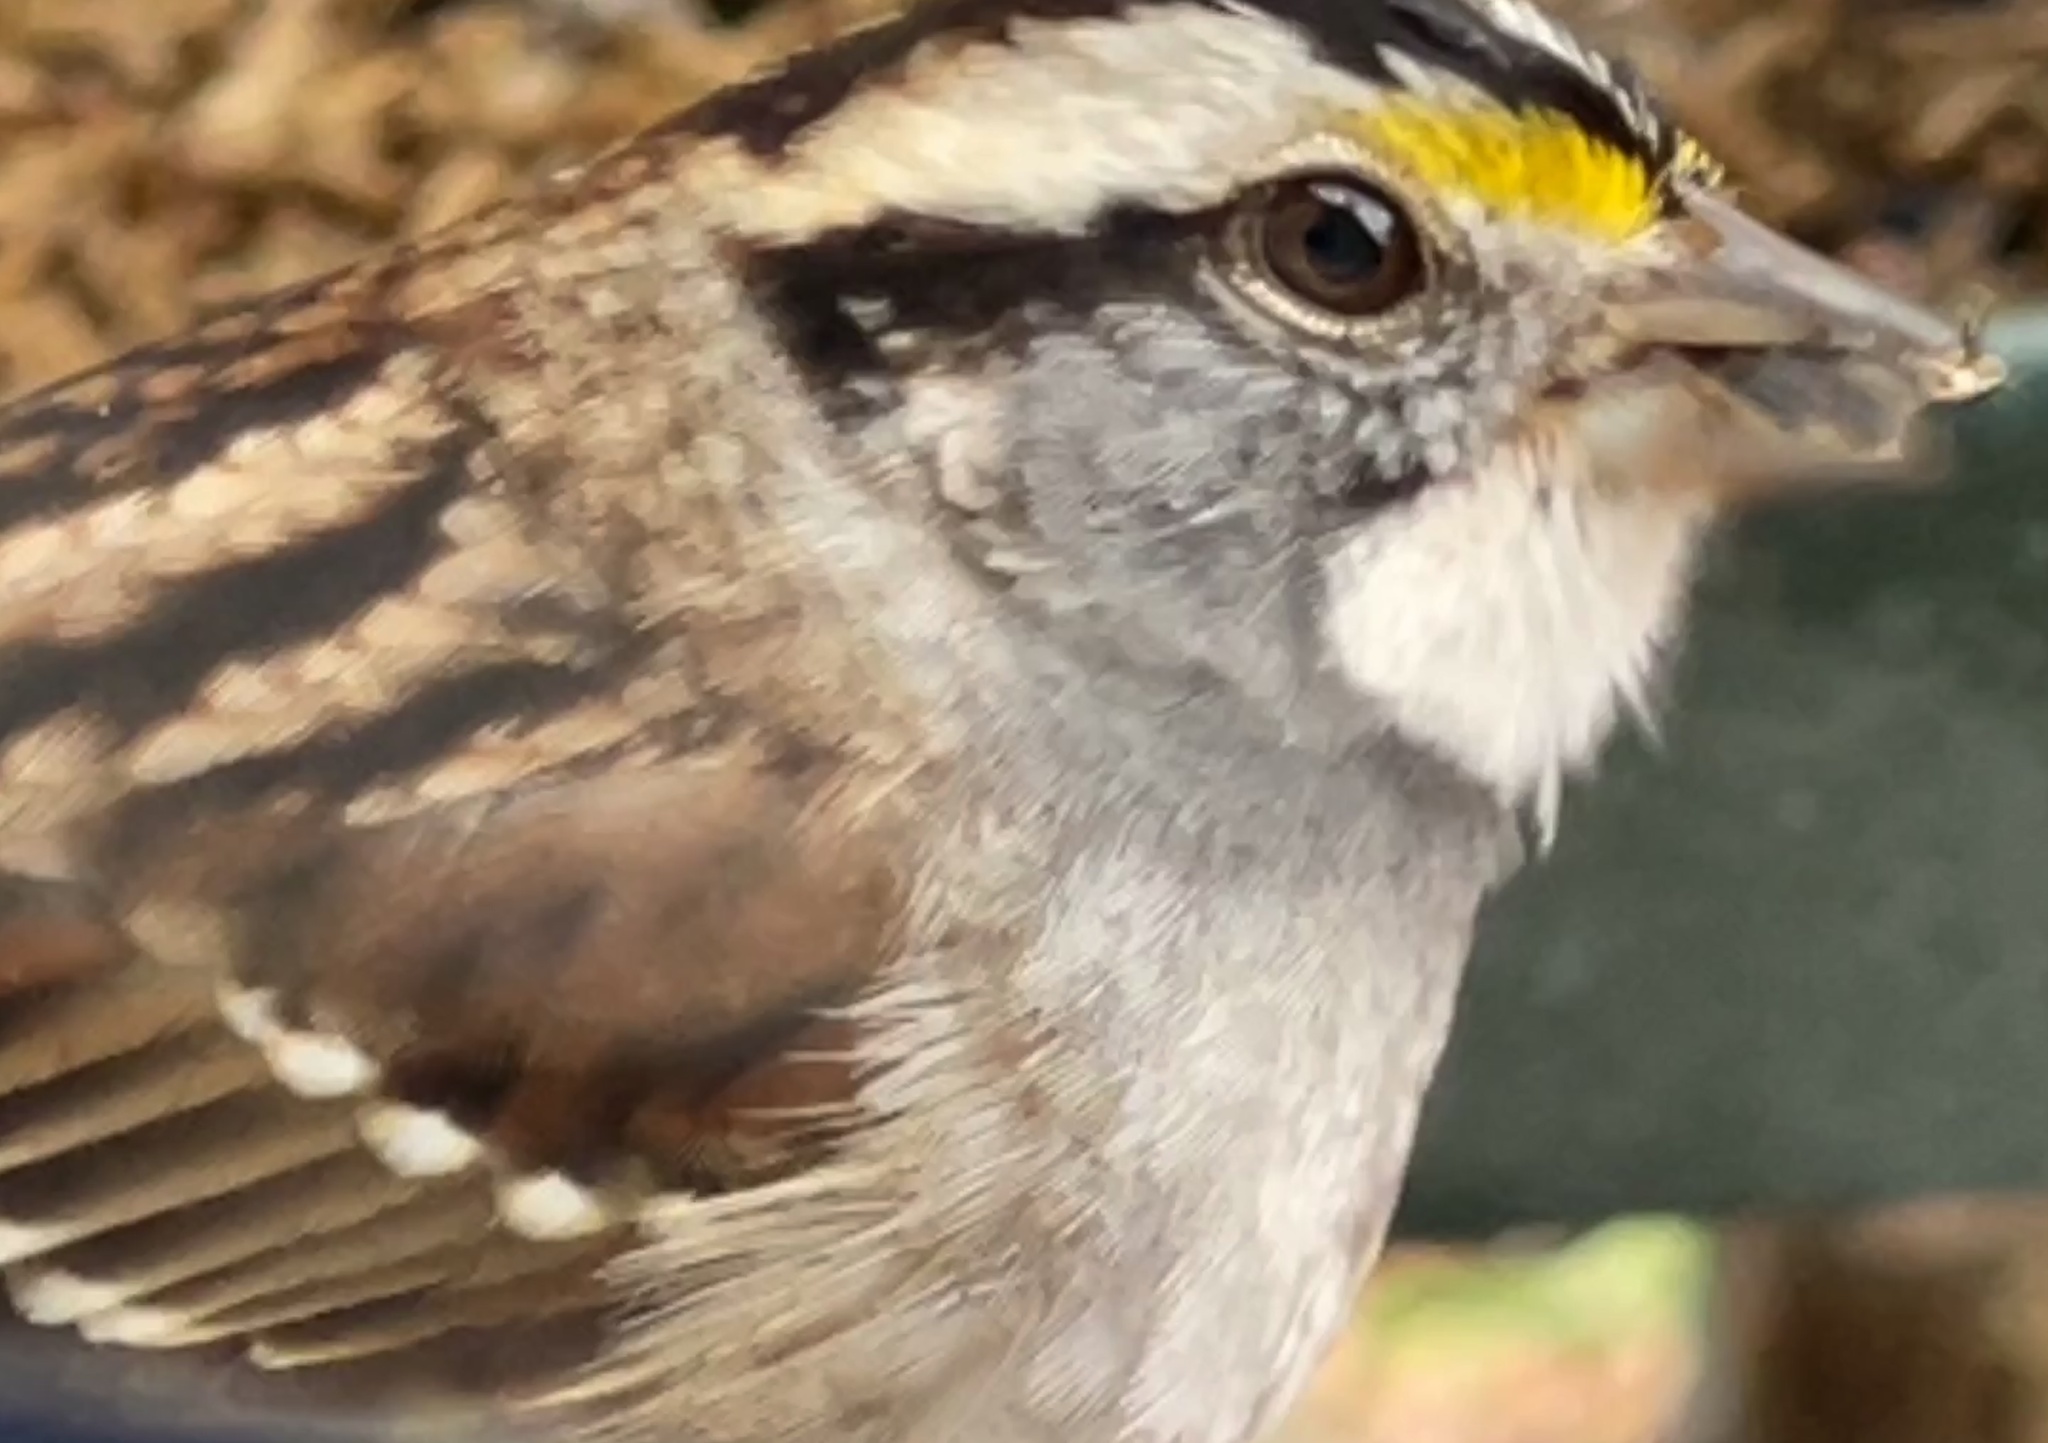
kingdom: Animalia
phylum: Chordata
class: Aves
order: Passeriformes
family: Passerellidae
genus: Zonotrichia
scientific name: Zonotrichia albicollis
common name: White-throated sparrow
